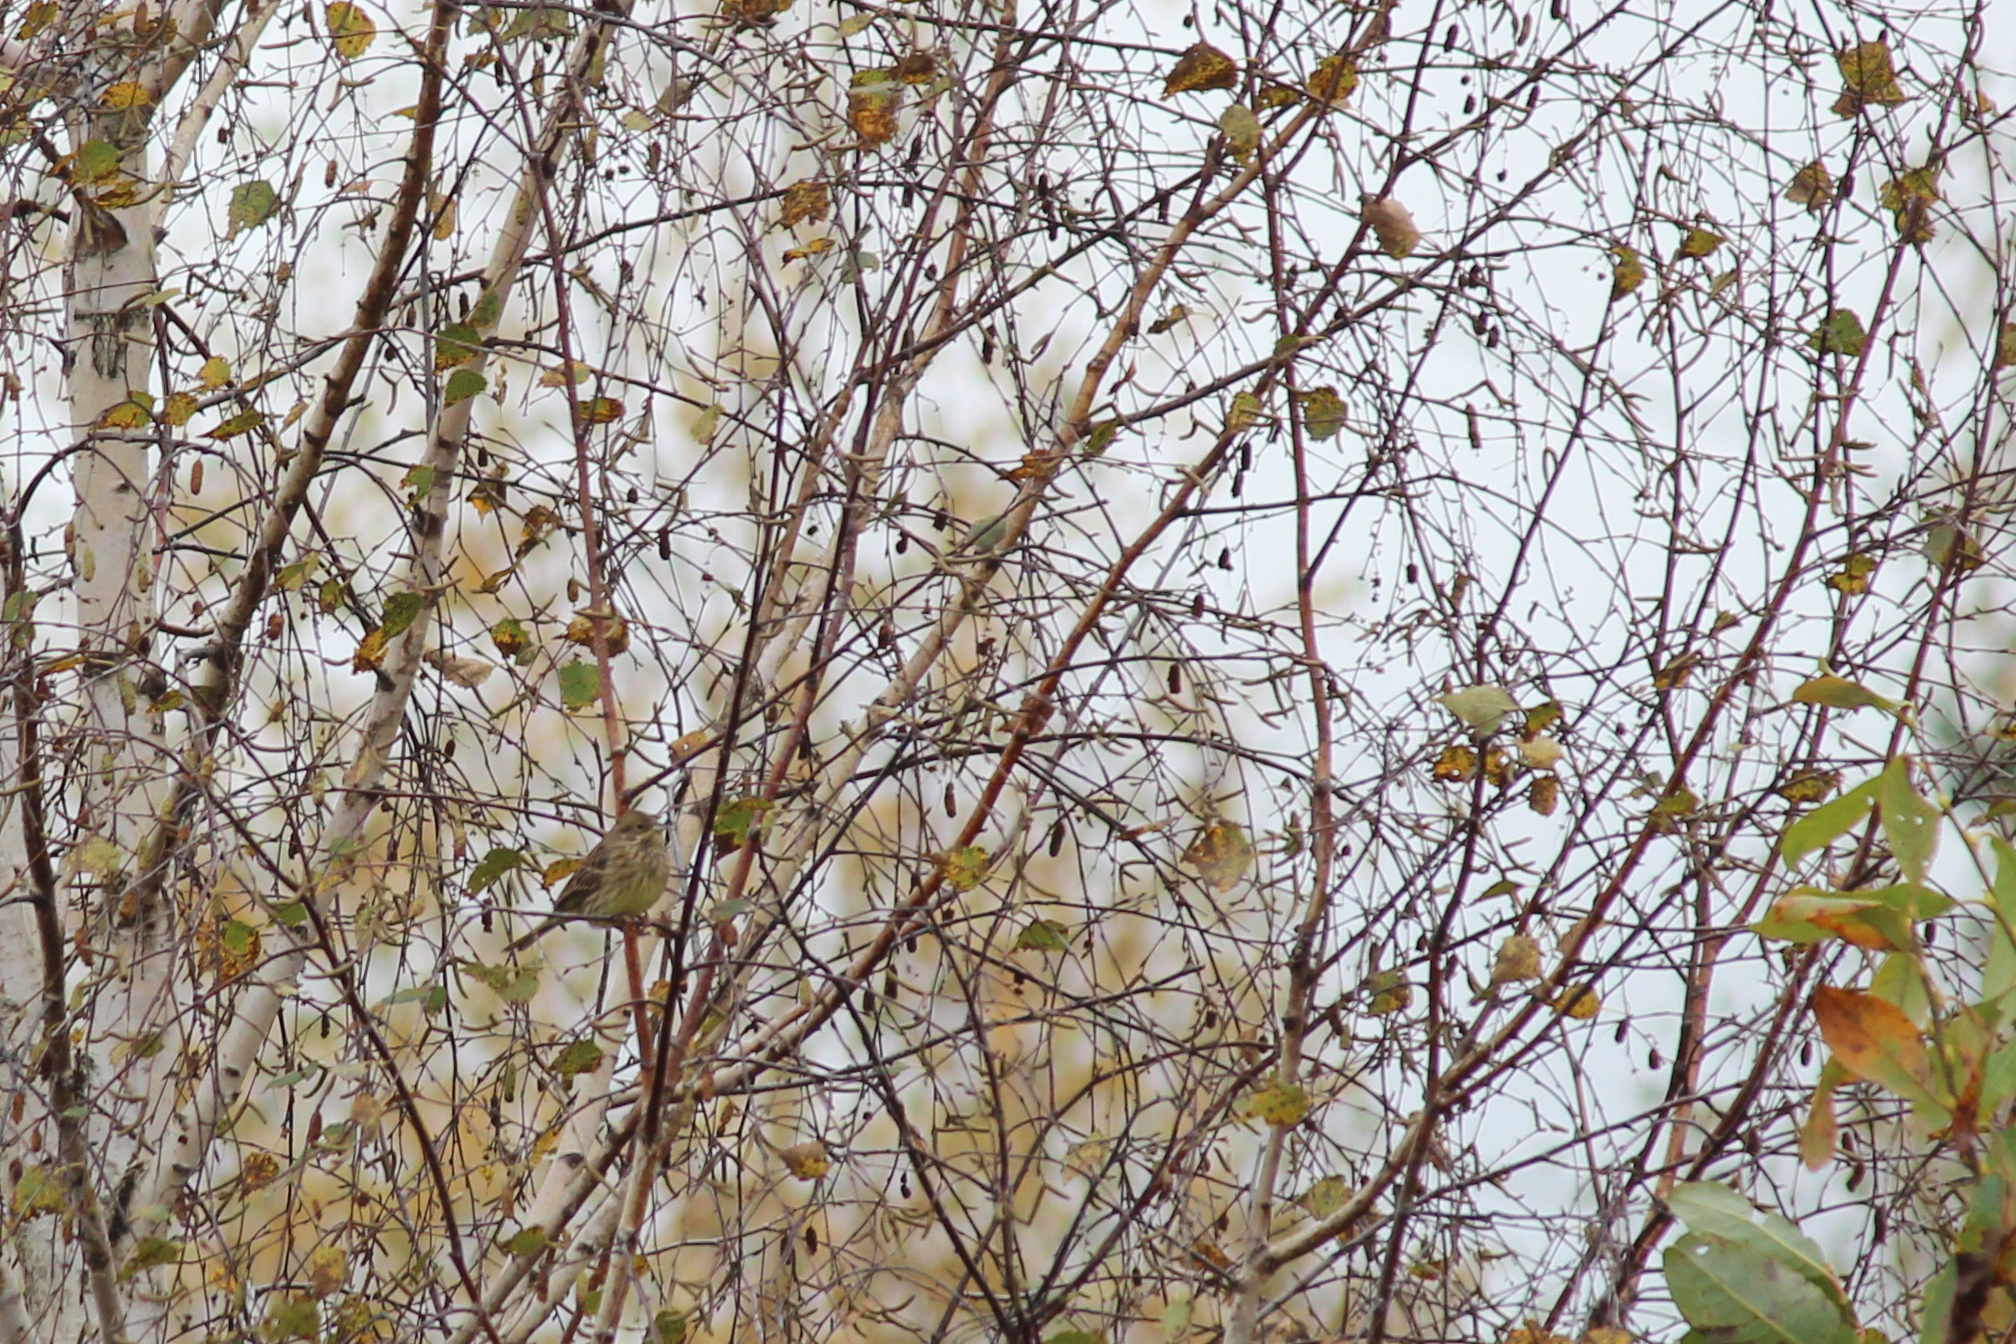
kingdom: Animalia
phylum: Chordata
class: Aves
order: Passeriformes
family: Emberizidae
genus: Emberiza
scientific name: Emberiza citrinella
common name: Yellowhammer
